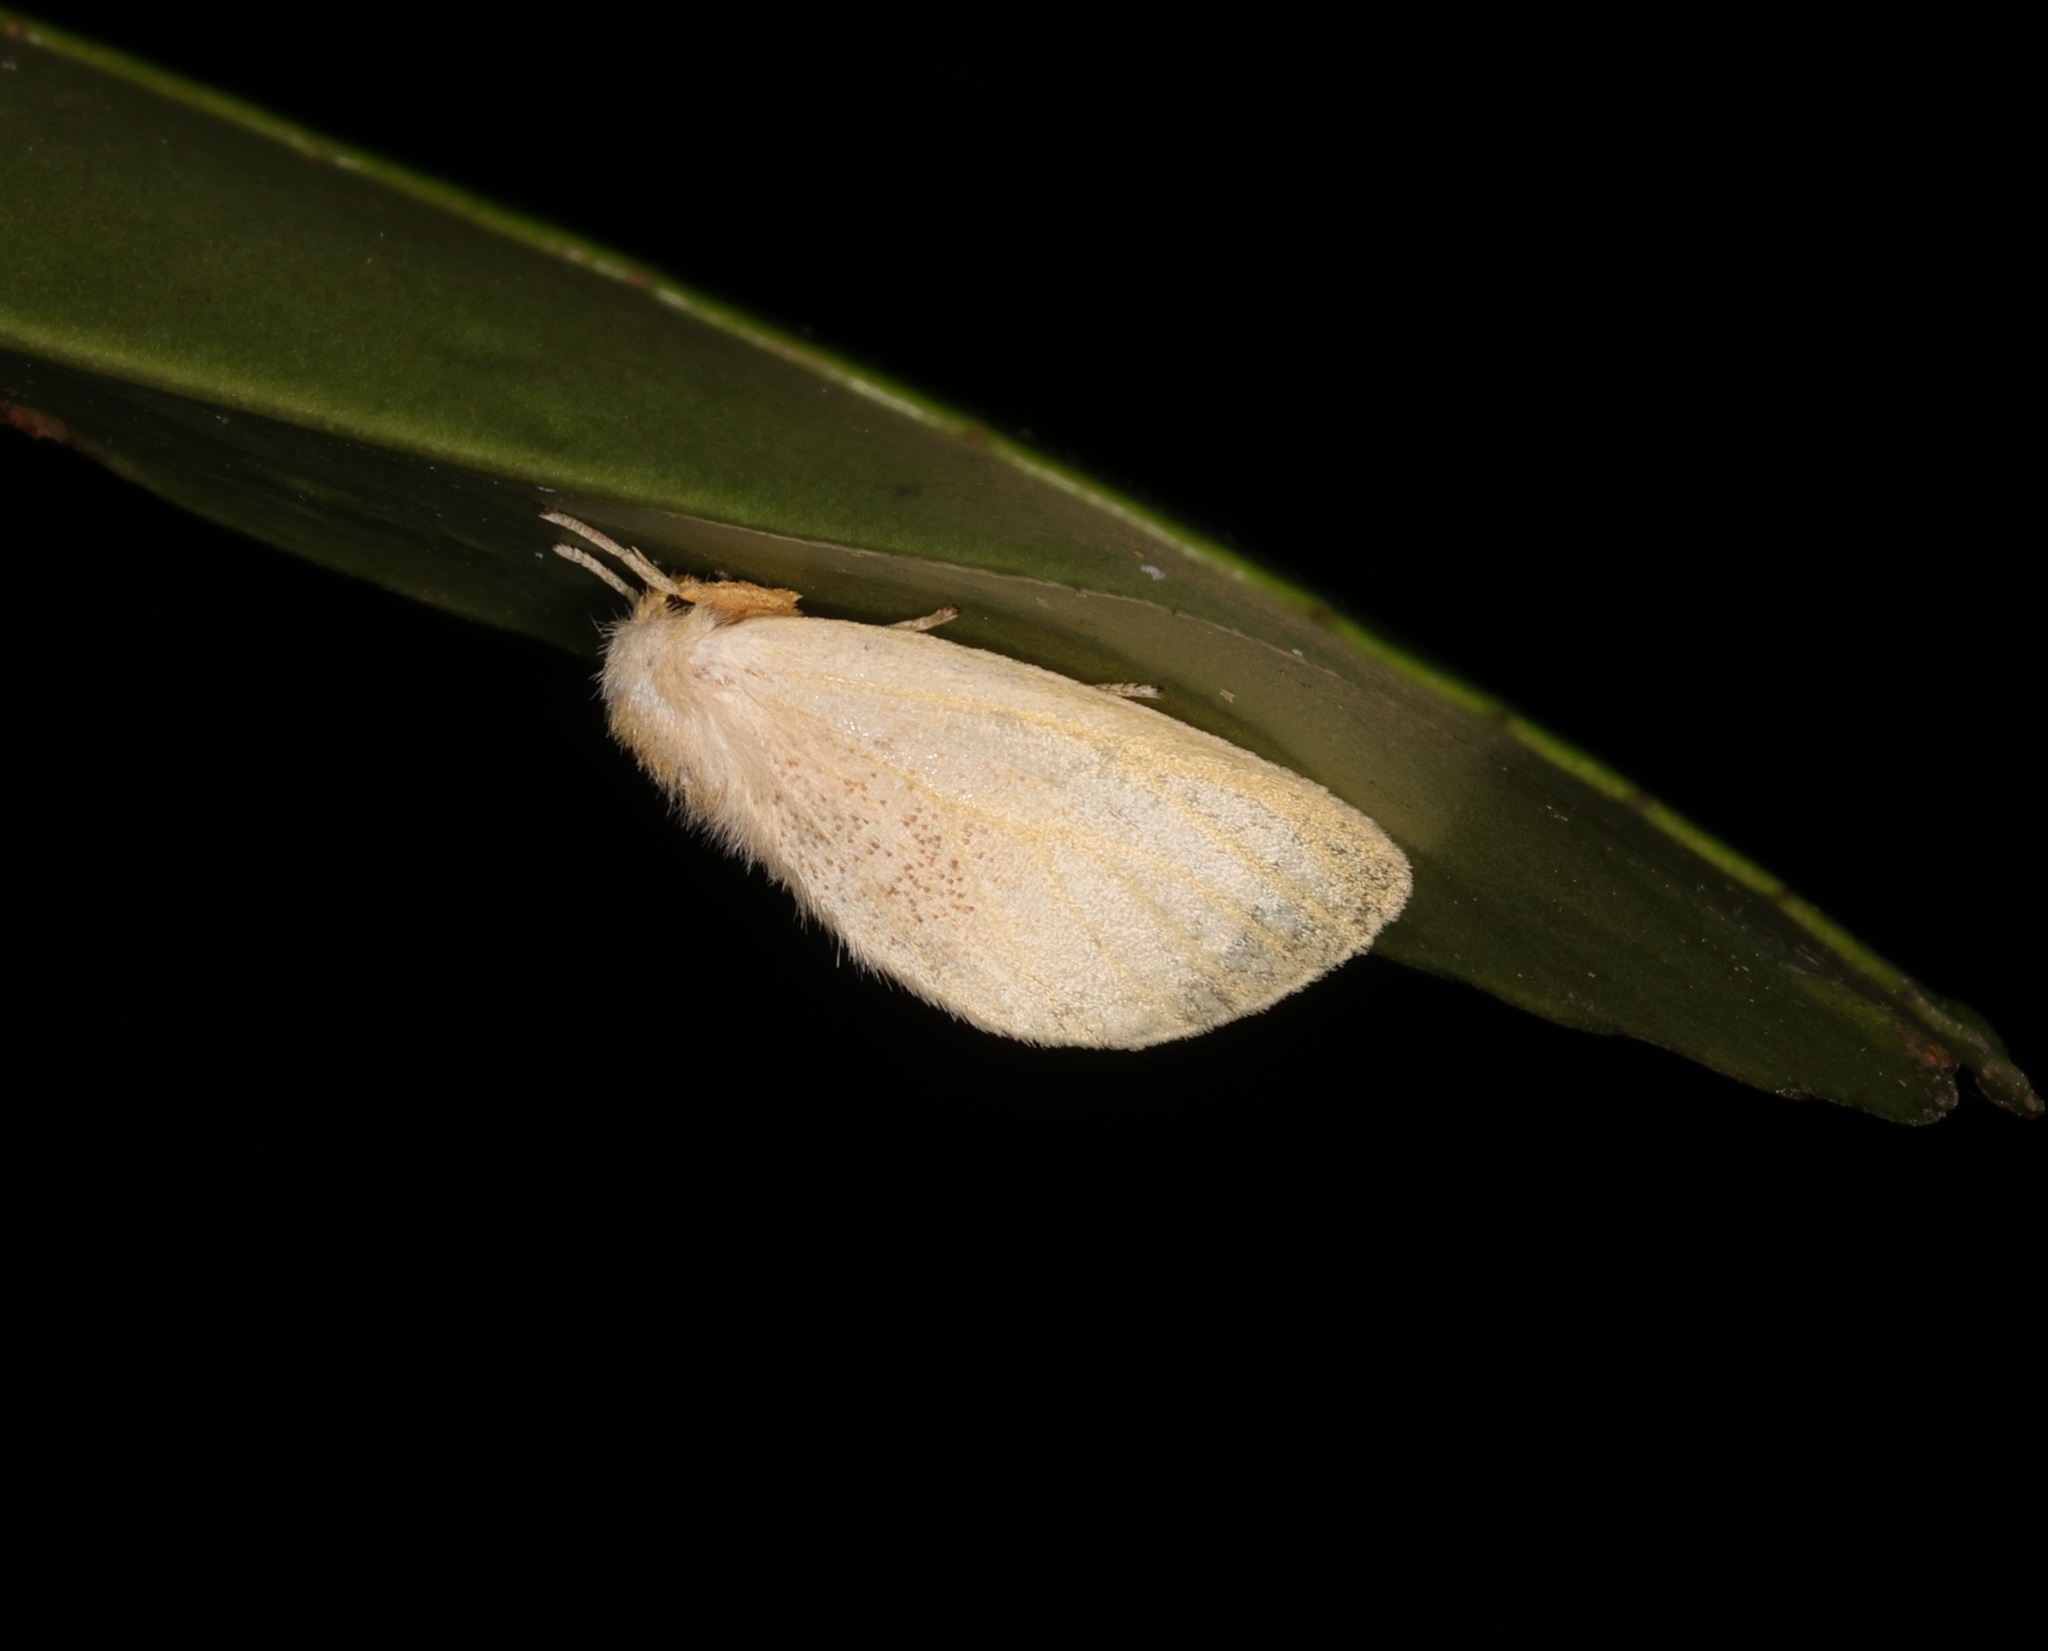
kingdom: Animalia
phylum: Arthropoda
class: Insecta
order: Lepidoptera
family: Erebidae
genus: Perina
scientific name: Perina nuda
